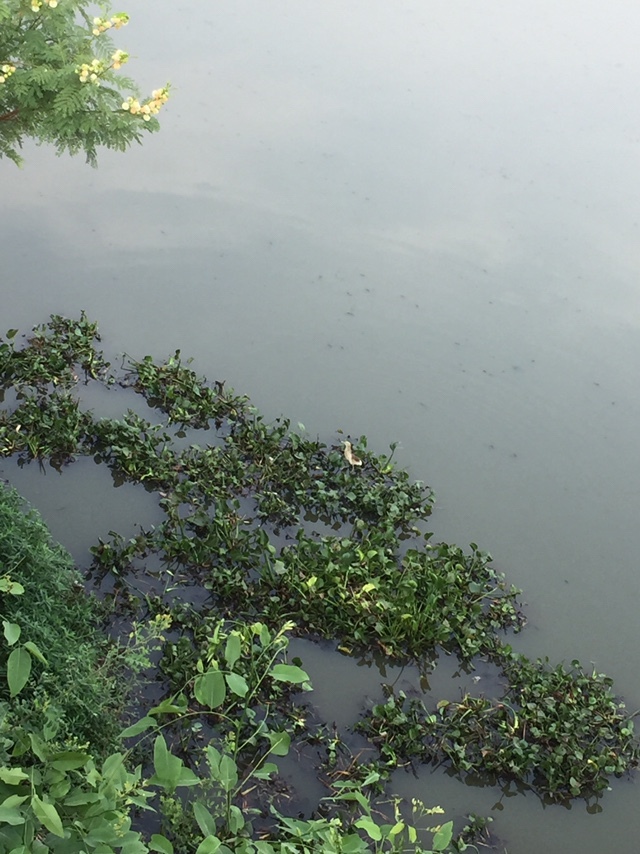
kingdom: Animalia
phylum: Chordata
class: Aves
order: Pelecaniformes
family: Ardeidae
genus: Ardeola
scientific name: Ardeola grayii
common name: Indian pond heron
